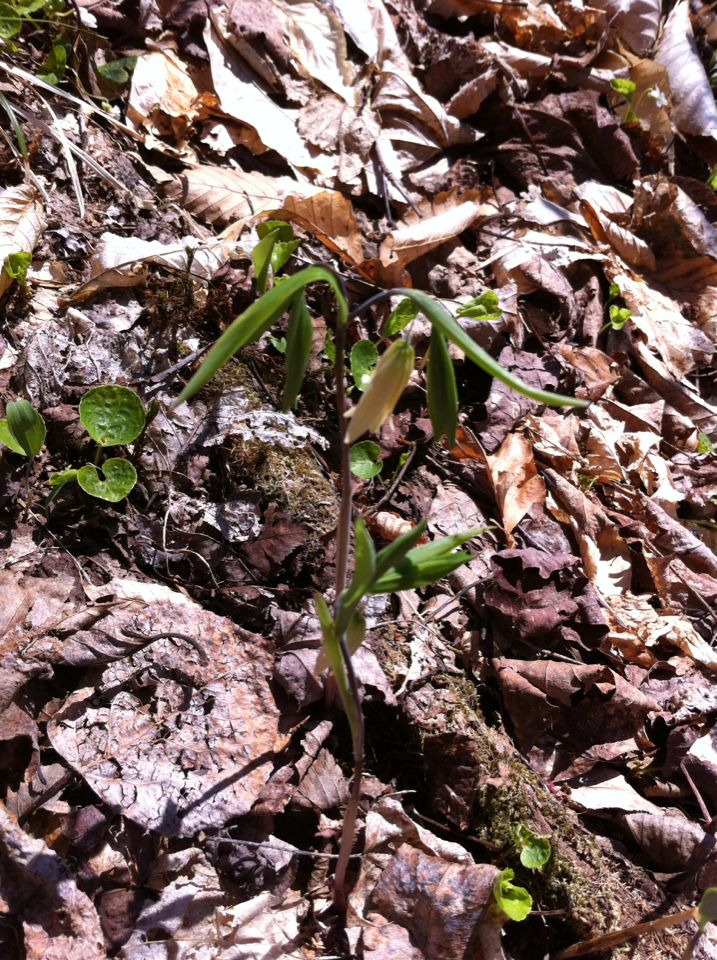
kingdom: Plantae
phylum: Tracheophyta
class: Liliopsida
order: Liliales
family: Colchicaceae
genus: Uvularia
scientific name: Uvularia sessilifolia
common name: Straw-lily
